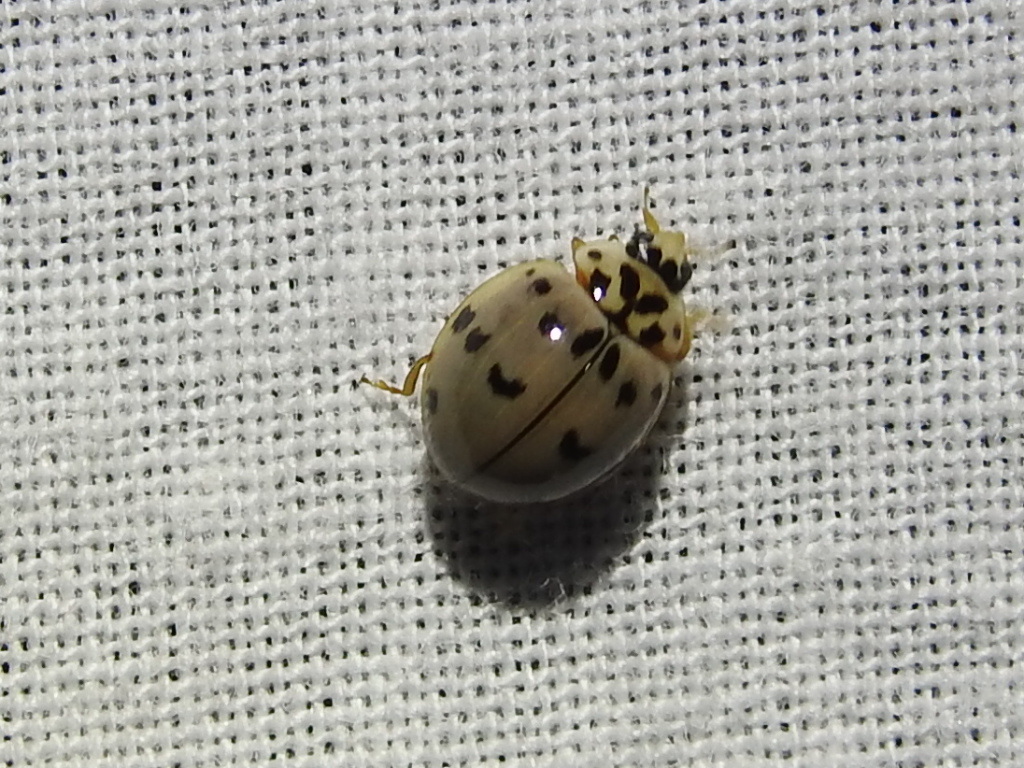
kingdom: Animalia
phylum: Arthropoda
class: Insecta
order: Coleoptera
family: Coccinellidae
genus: Olla
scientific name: Olla v-nigrum
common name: Ashy gray lady beetle
